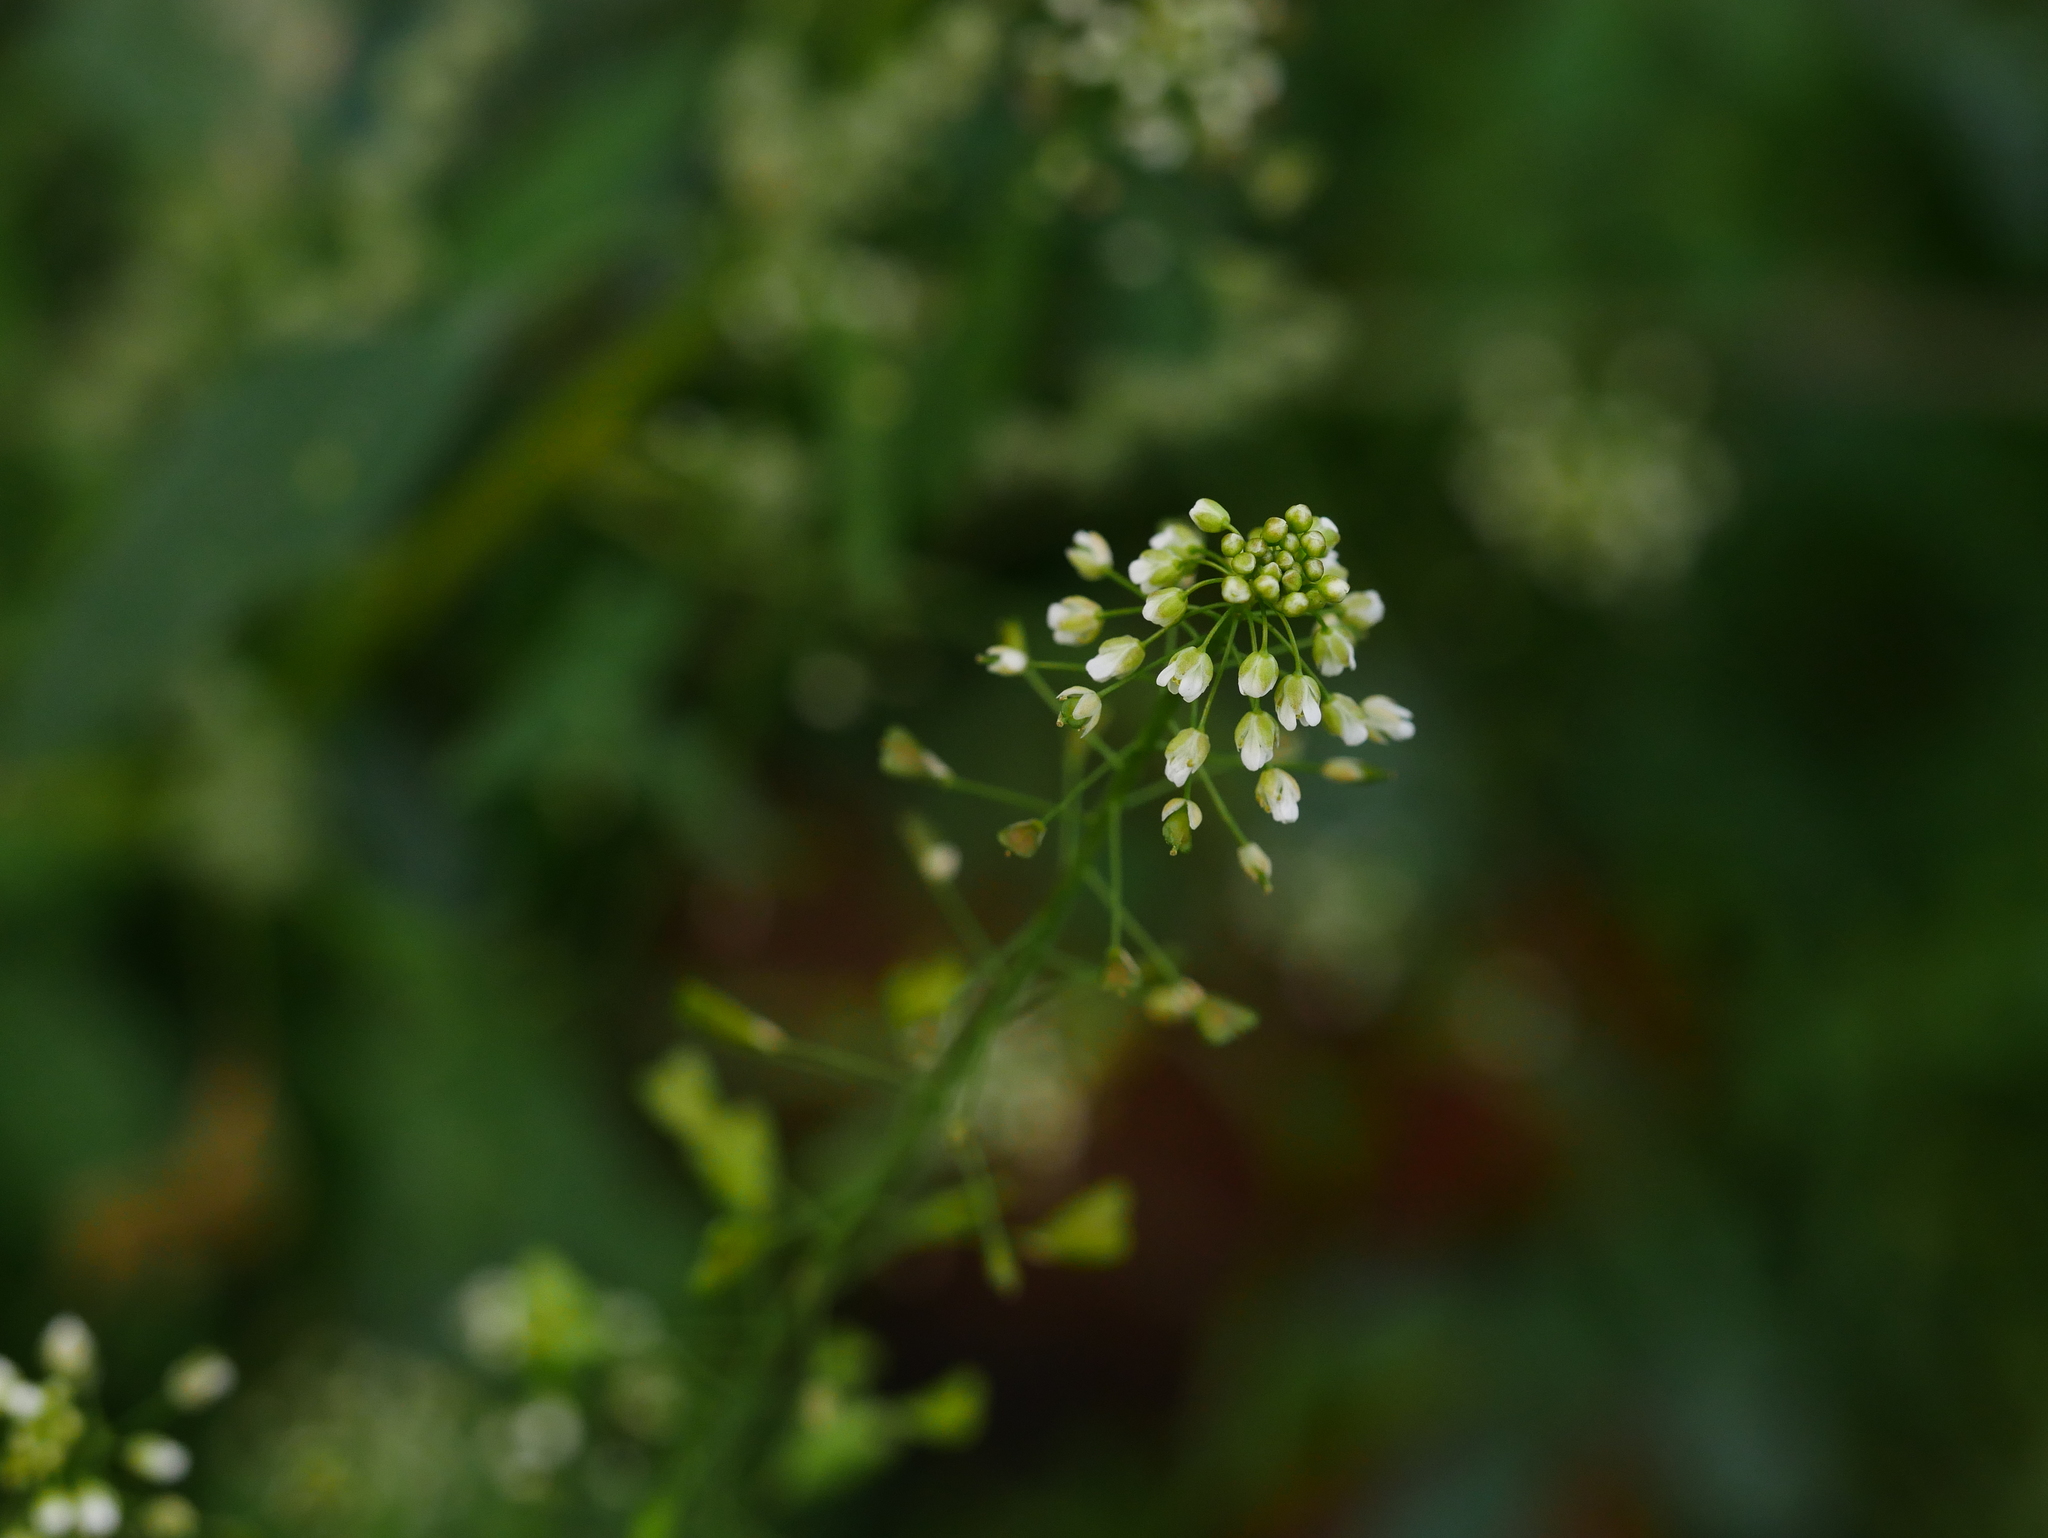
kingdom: Plantae
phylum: Tracheophyta
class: Magnoliopsida
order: Brassicales
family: Brassicaceae
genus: Capsella
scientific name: Capsella bursa-pastoris
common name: Shepherd's purse
